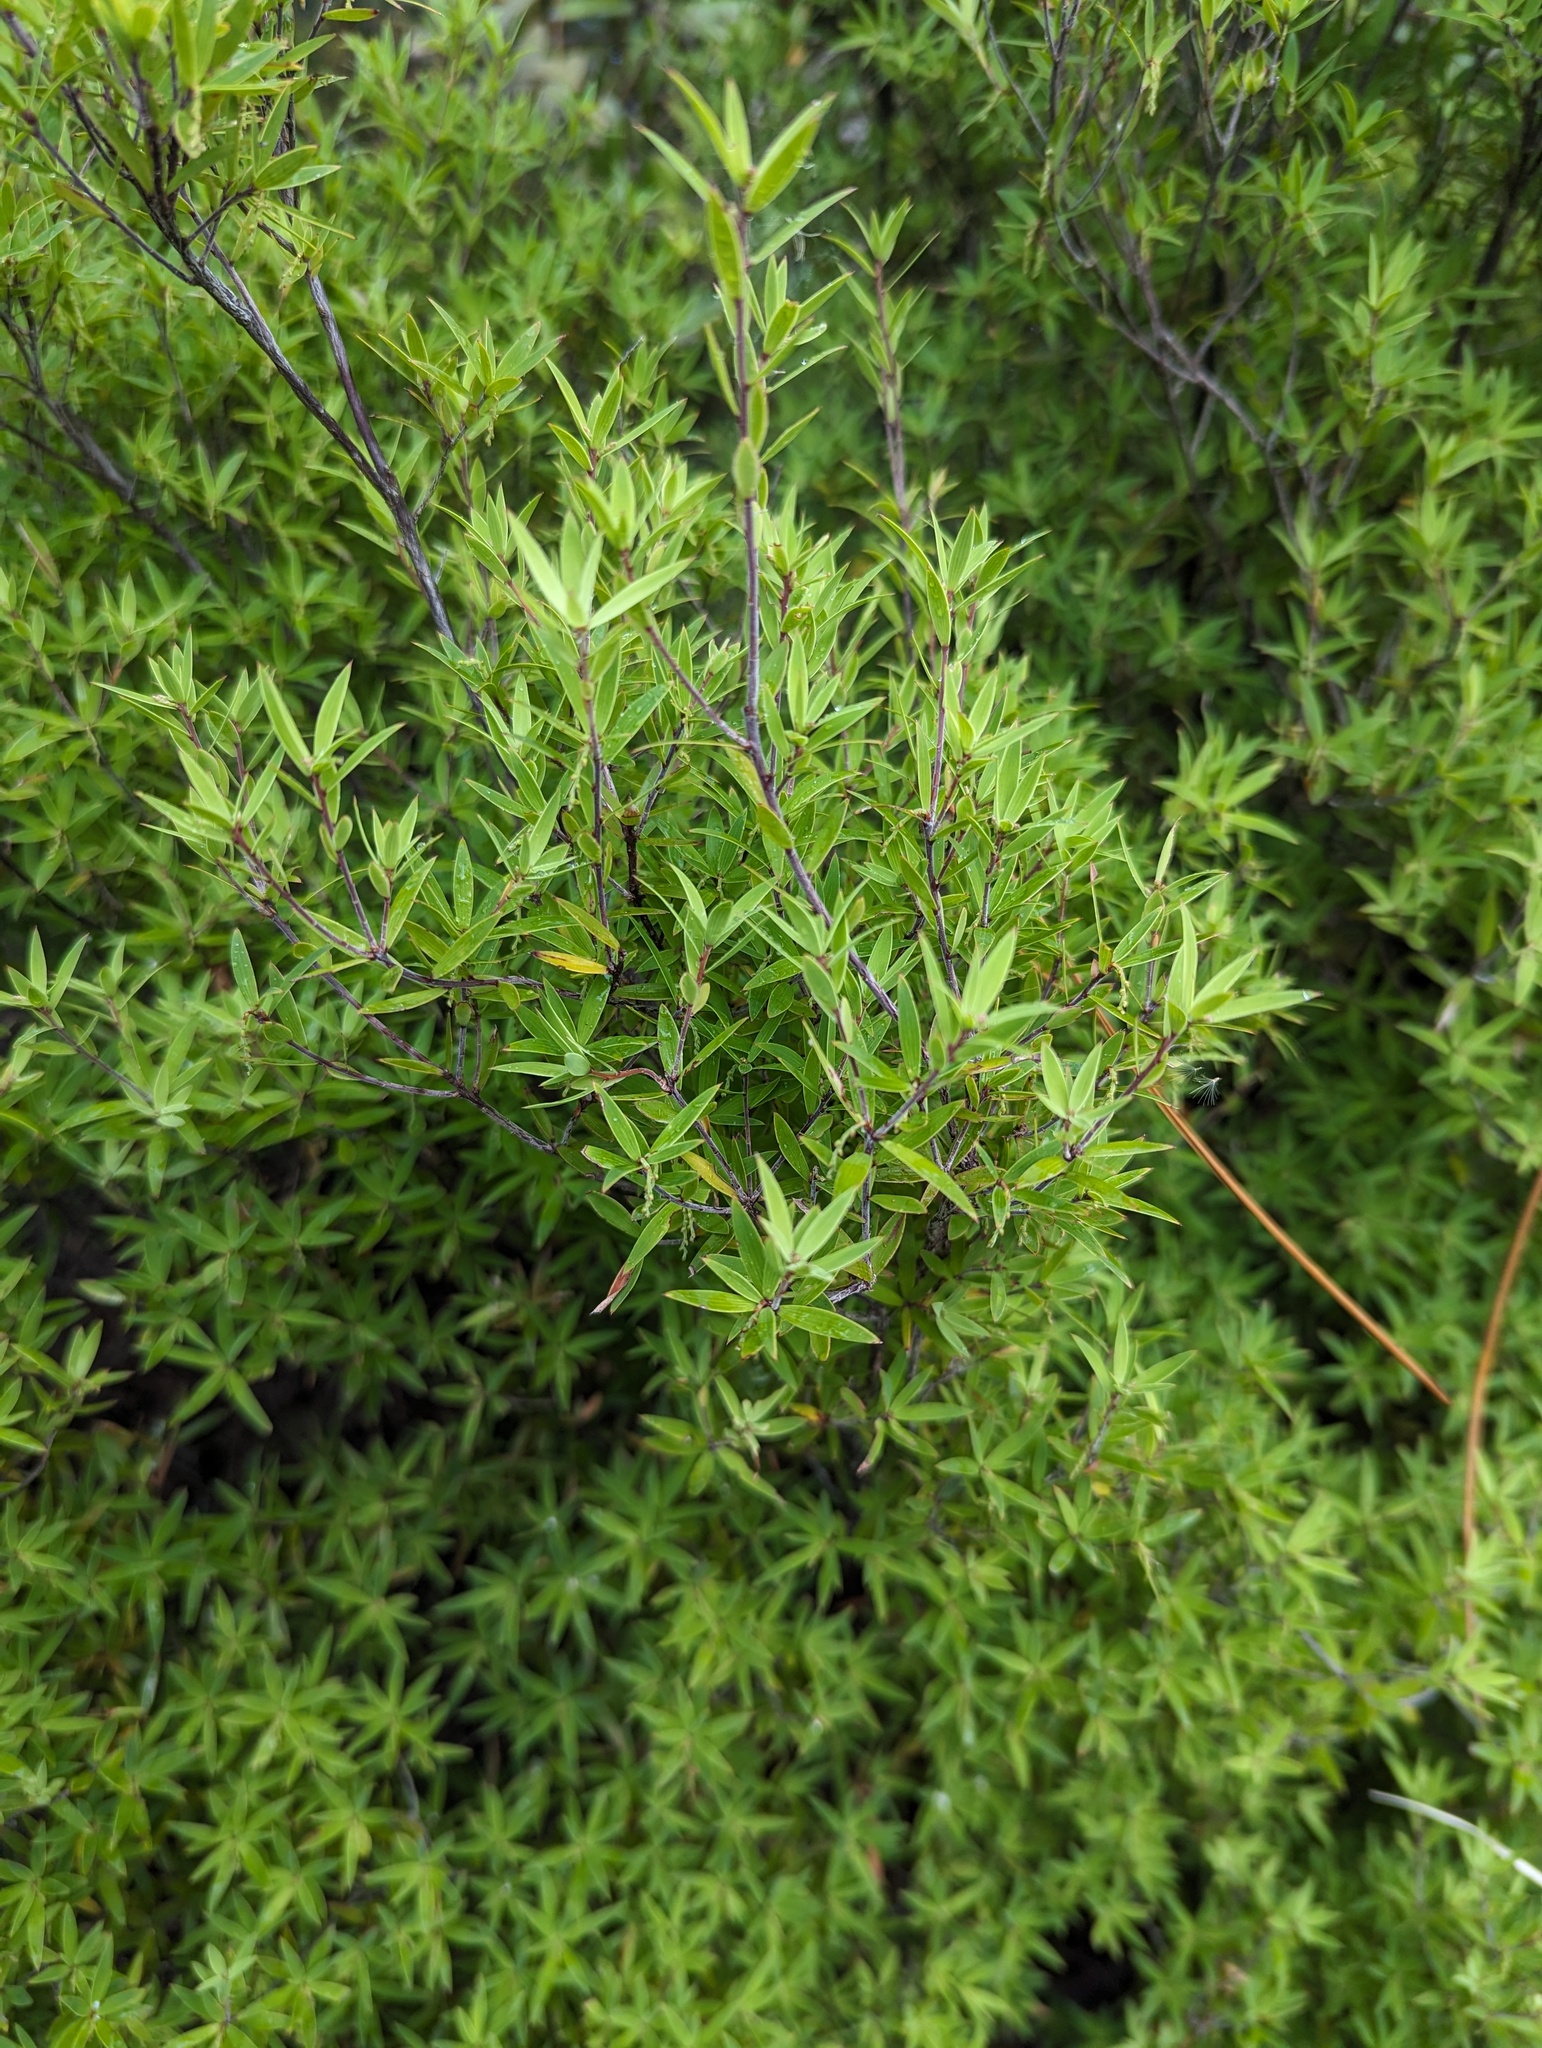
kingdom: Plantae
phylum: Tracheophyta
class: Magnoliopsida
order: Ericales
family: Ericaceae
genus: Leucopogon
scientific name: Leucopogon fasciculatus
